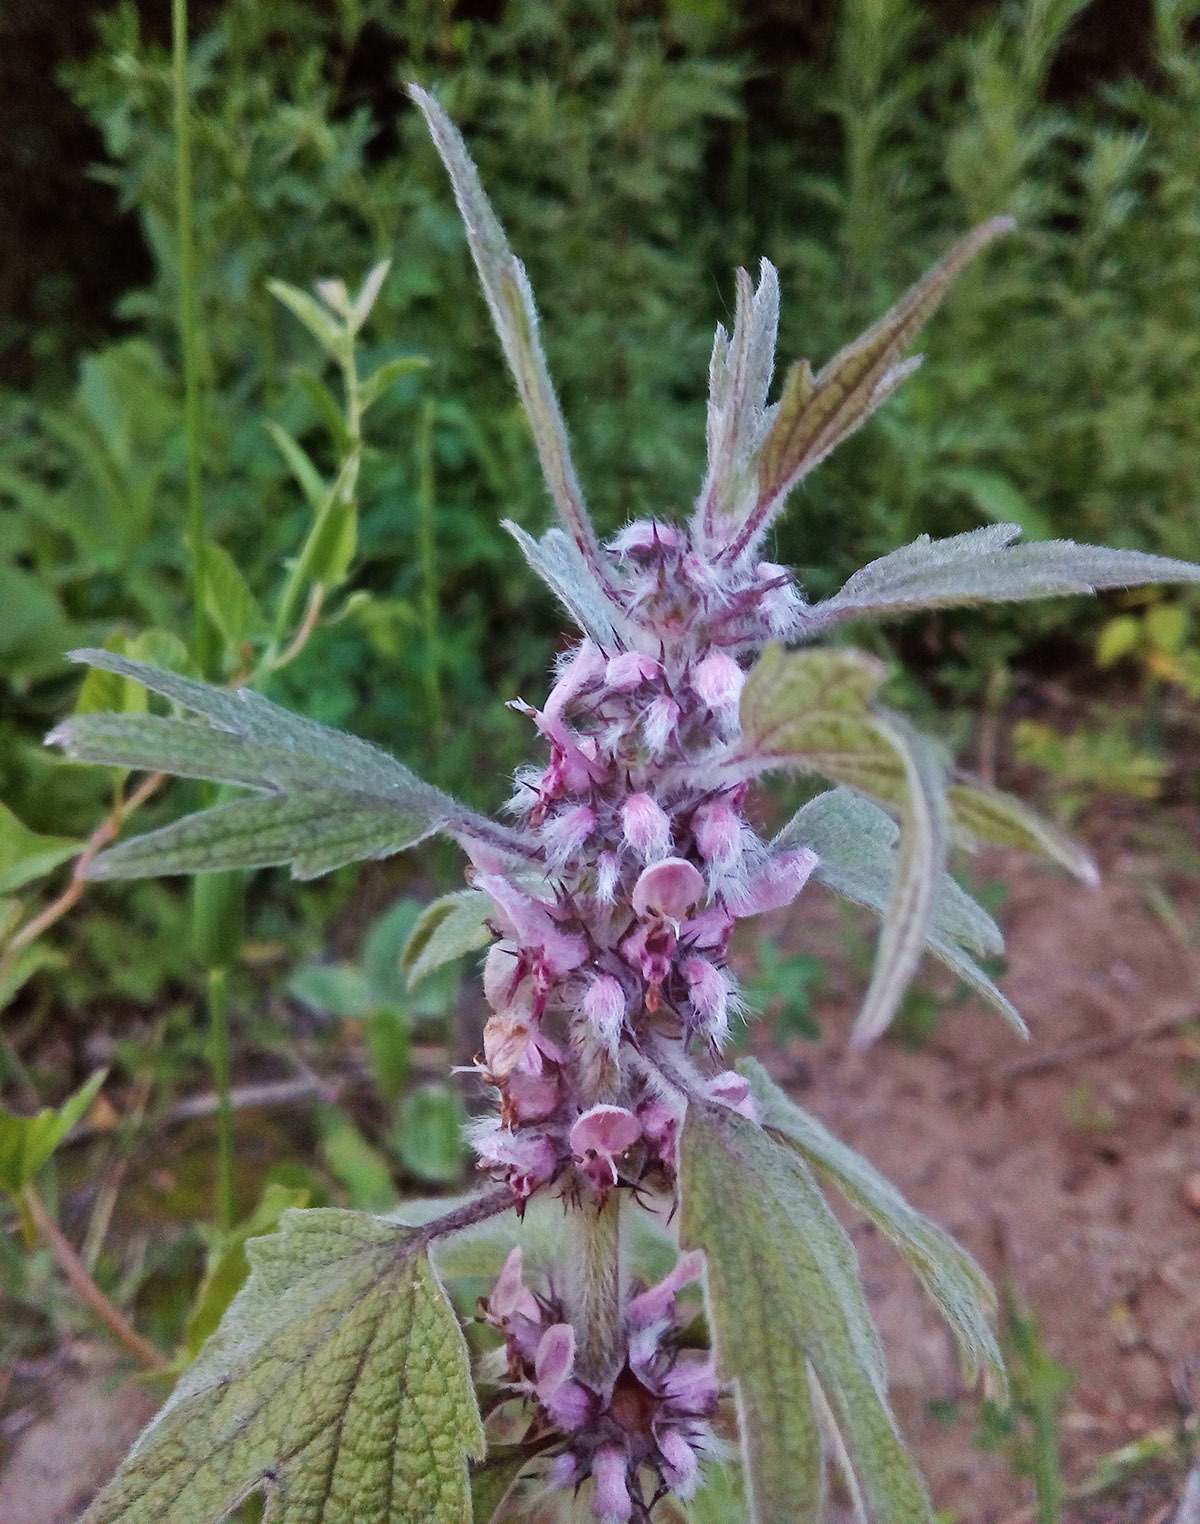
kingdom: Plantae
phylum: Tracheophyta
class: Magnoliopsida
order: Lamiales
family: Lamiaceae
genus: Leonurus
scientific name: Leonurus quinquelobatus
